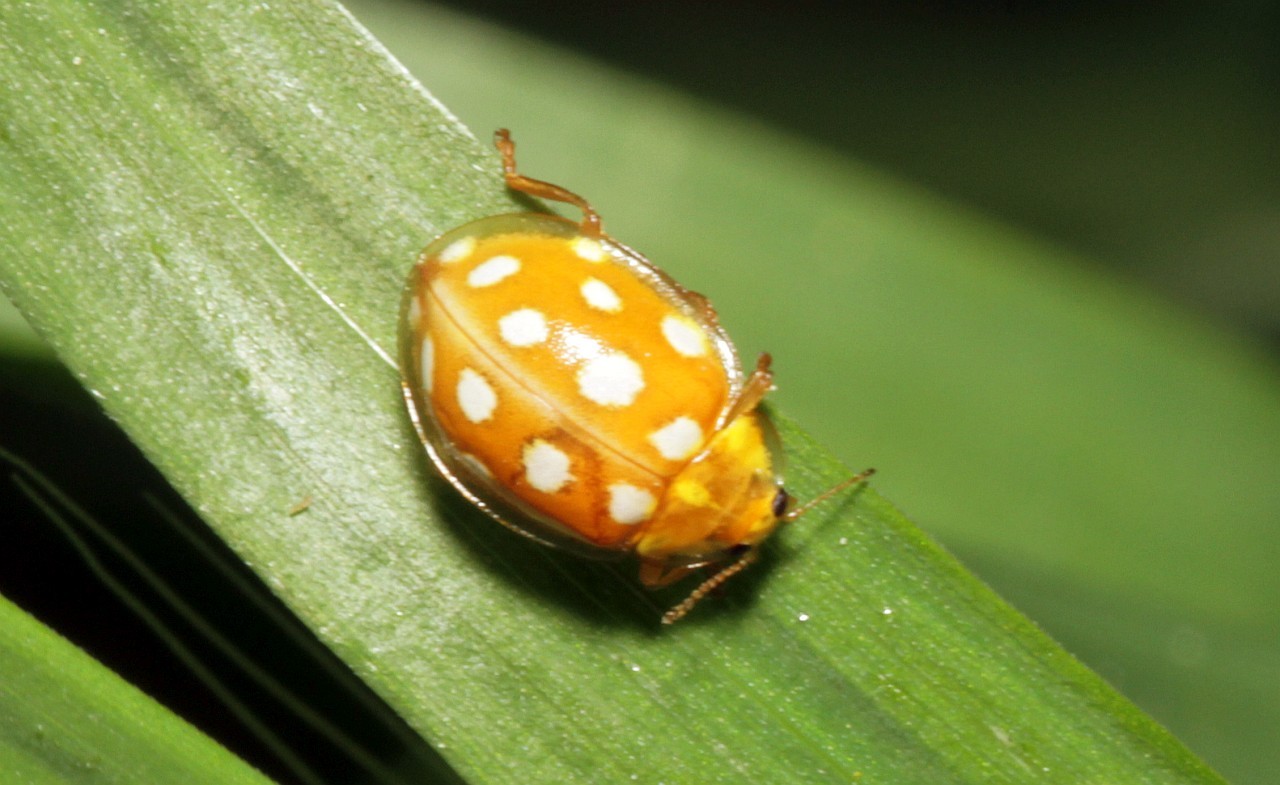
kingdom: Animalia
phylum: Arthropoda
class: Insecta
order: Coleoptera
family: Coccinellidae
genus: Halyzia
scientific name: Halyzia sedecimguttata
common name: Orange ladybird
